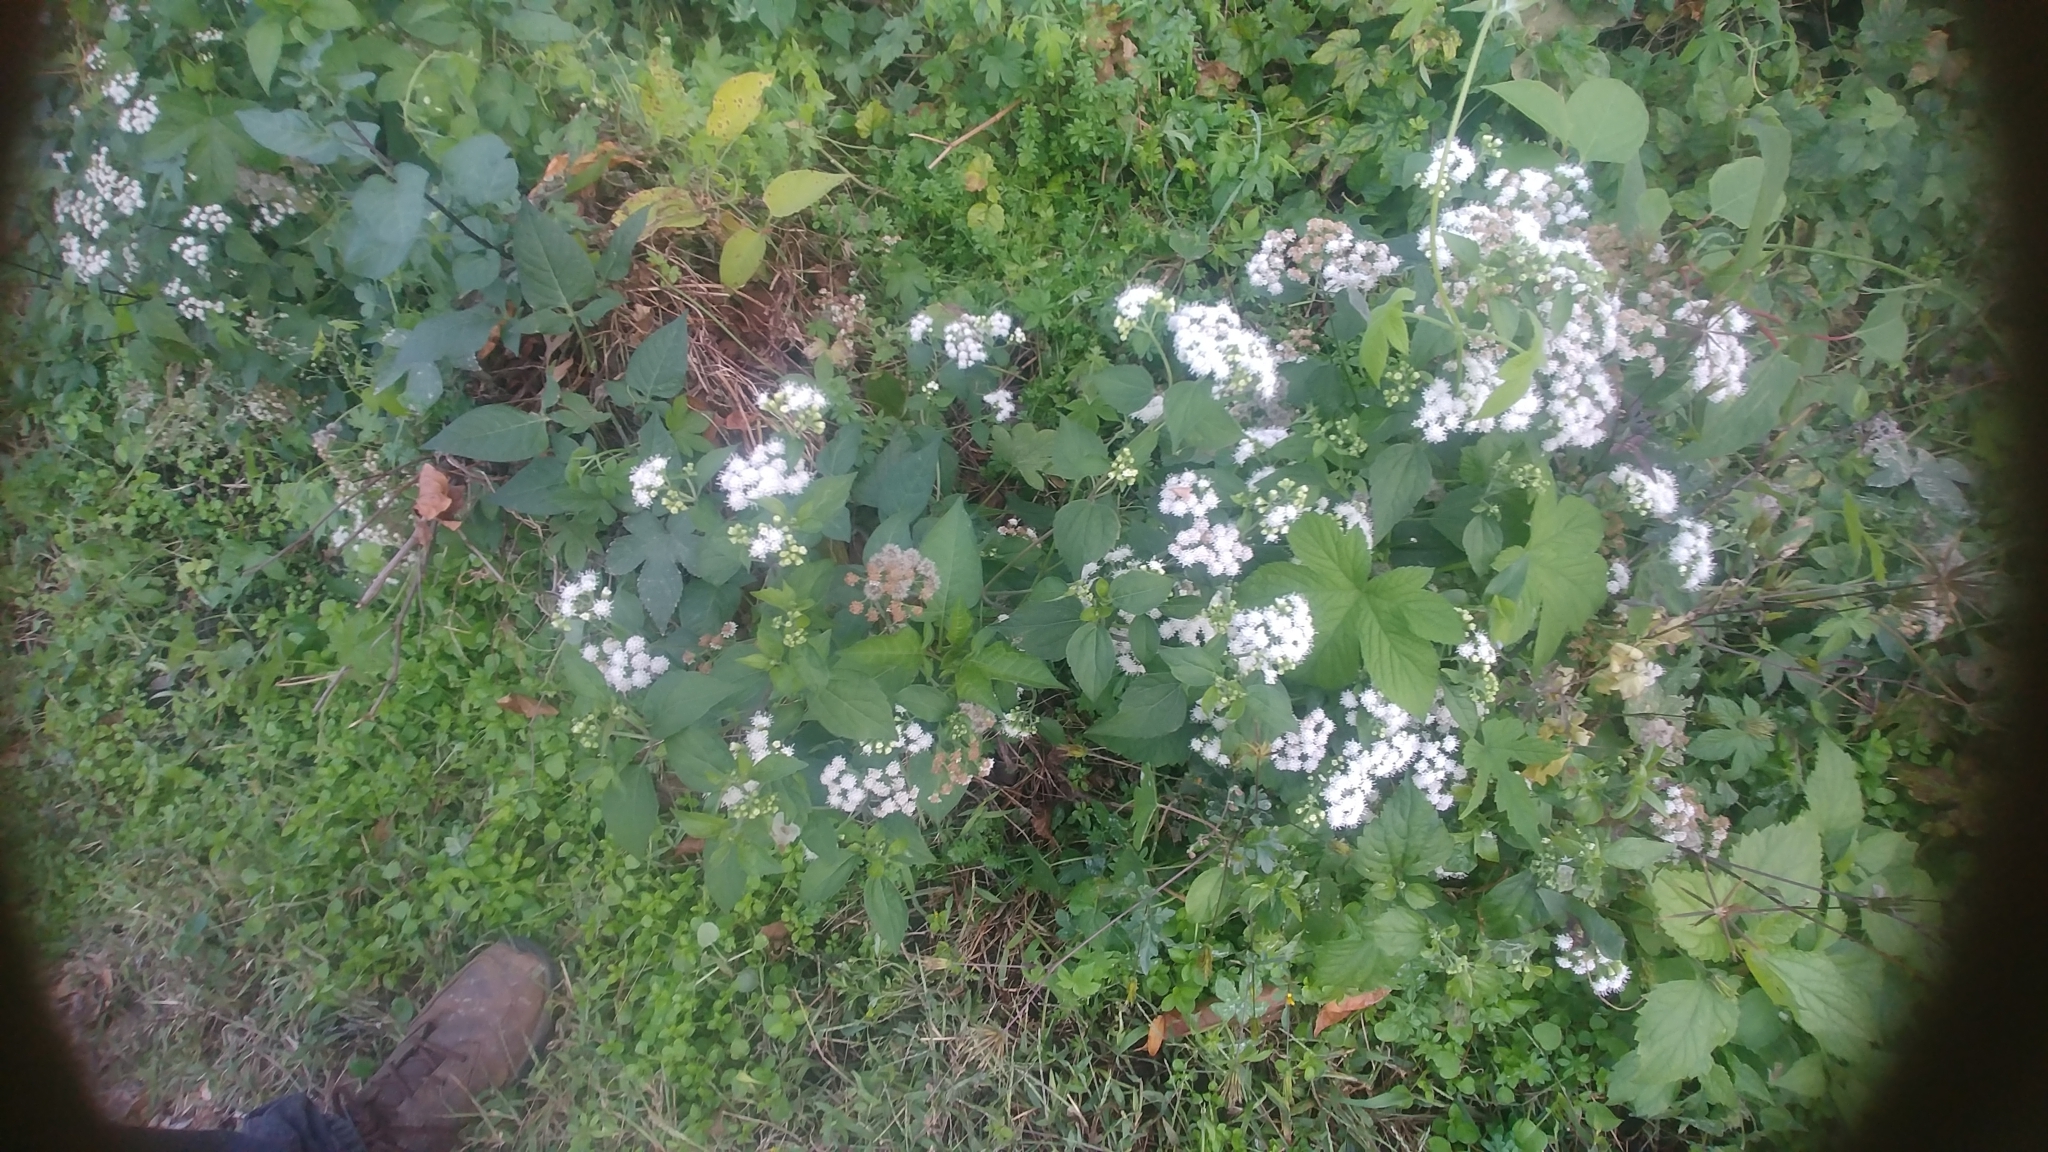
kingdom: Plantae
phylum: Tracheophyta
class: Magnoliopsida
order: Asterales
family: Asteraceae
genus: Ageratina
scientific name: Ageratina altissima
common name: White snakeroot
